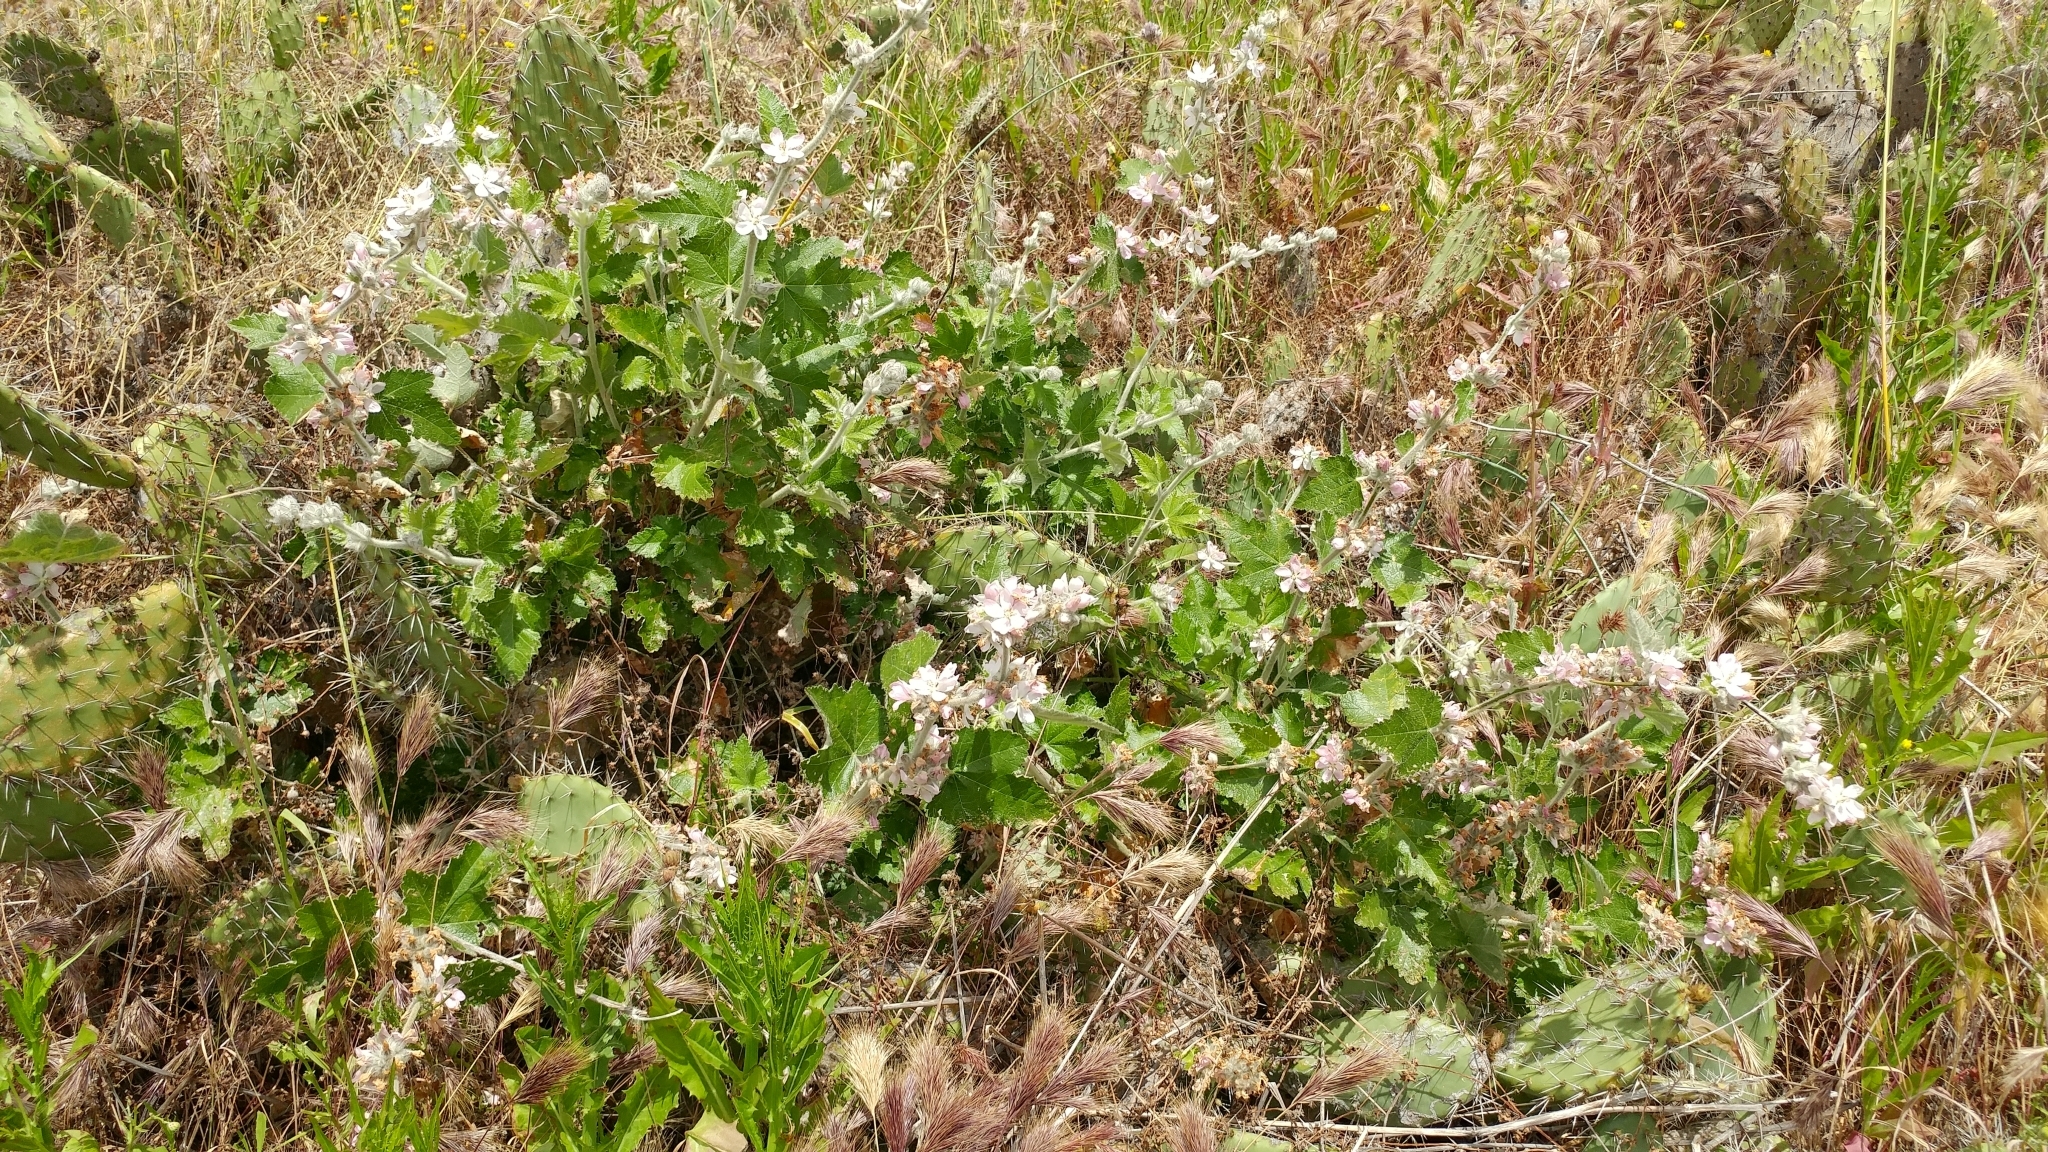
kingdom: Plantae
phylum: Tracheophyta
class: Magnoliopsida
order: Malvales
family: Malvaceae
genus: Malacothamnus
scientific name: Malacothamnus clementinus
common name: San clemente island bush-mallow
